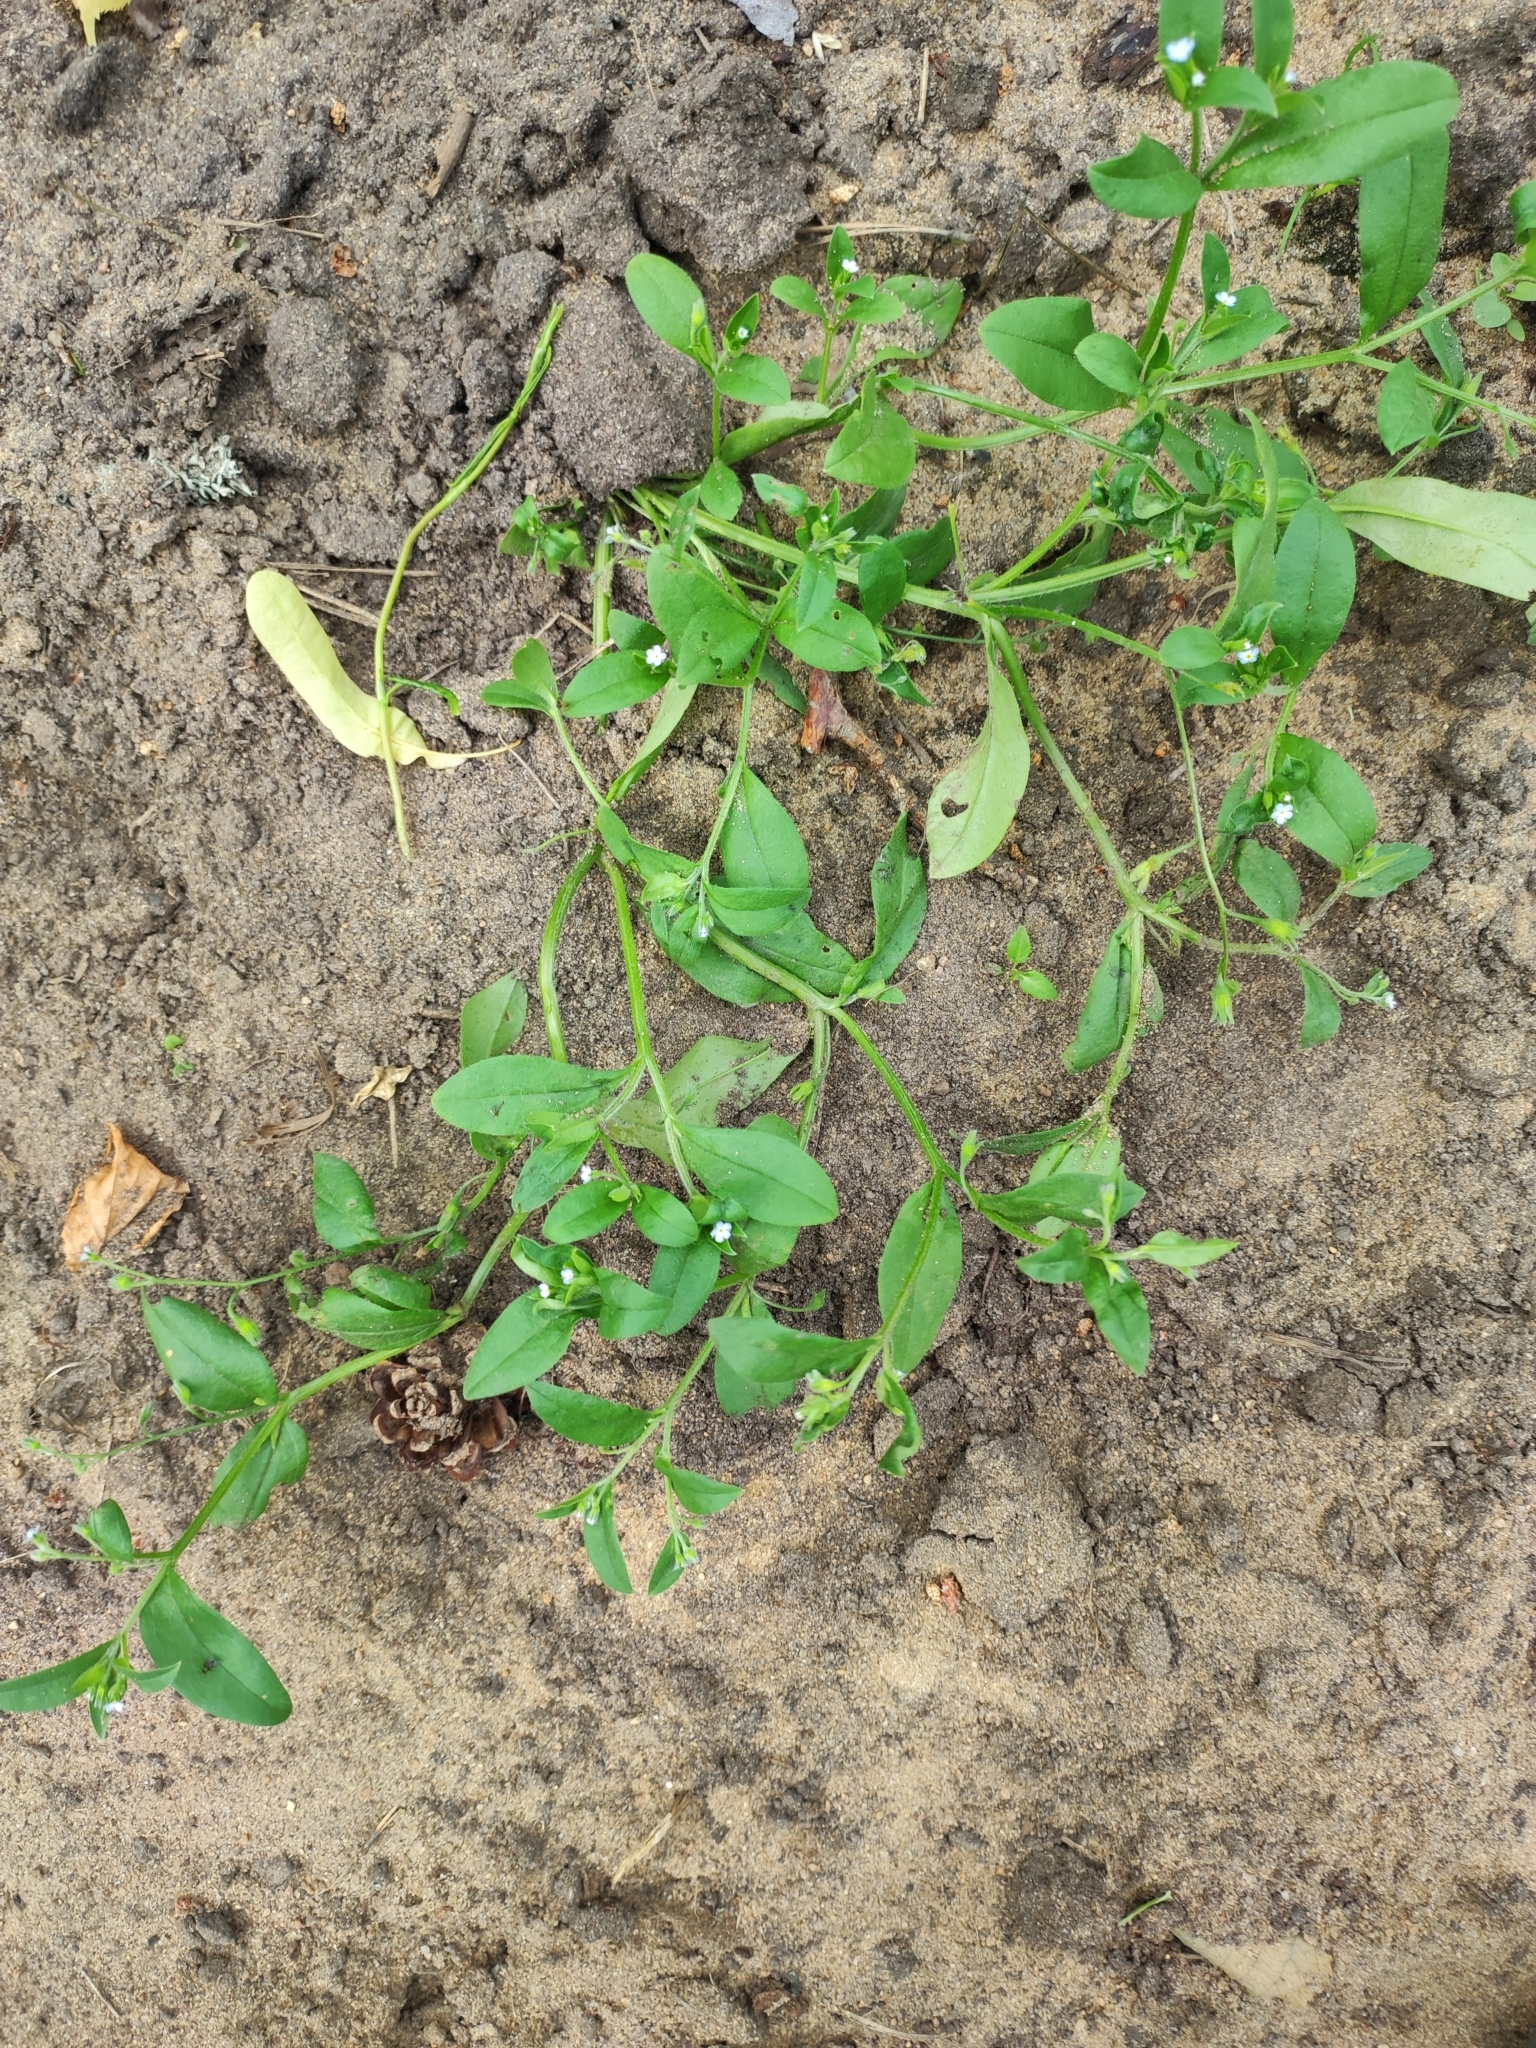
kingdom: Plantae
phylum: Tracheophyta
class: Magnoliopsida
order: Boraginales
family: Boraginaceae
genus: Myosotis
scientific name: Myosotis sparsiflora
